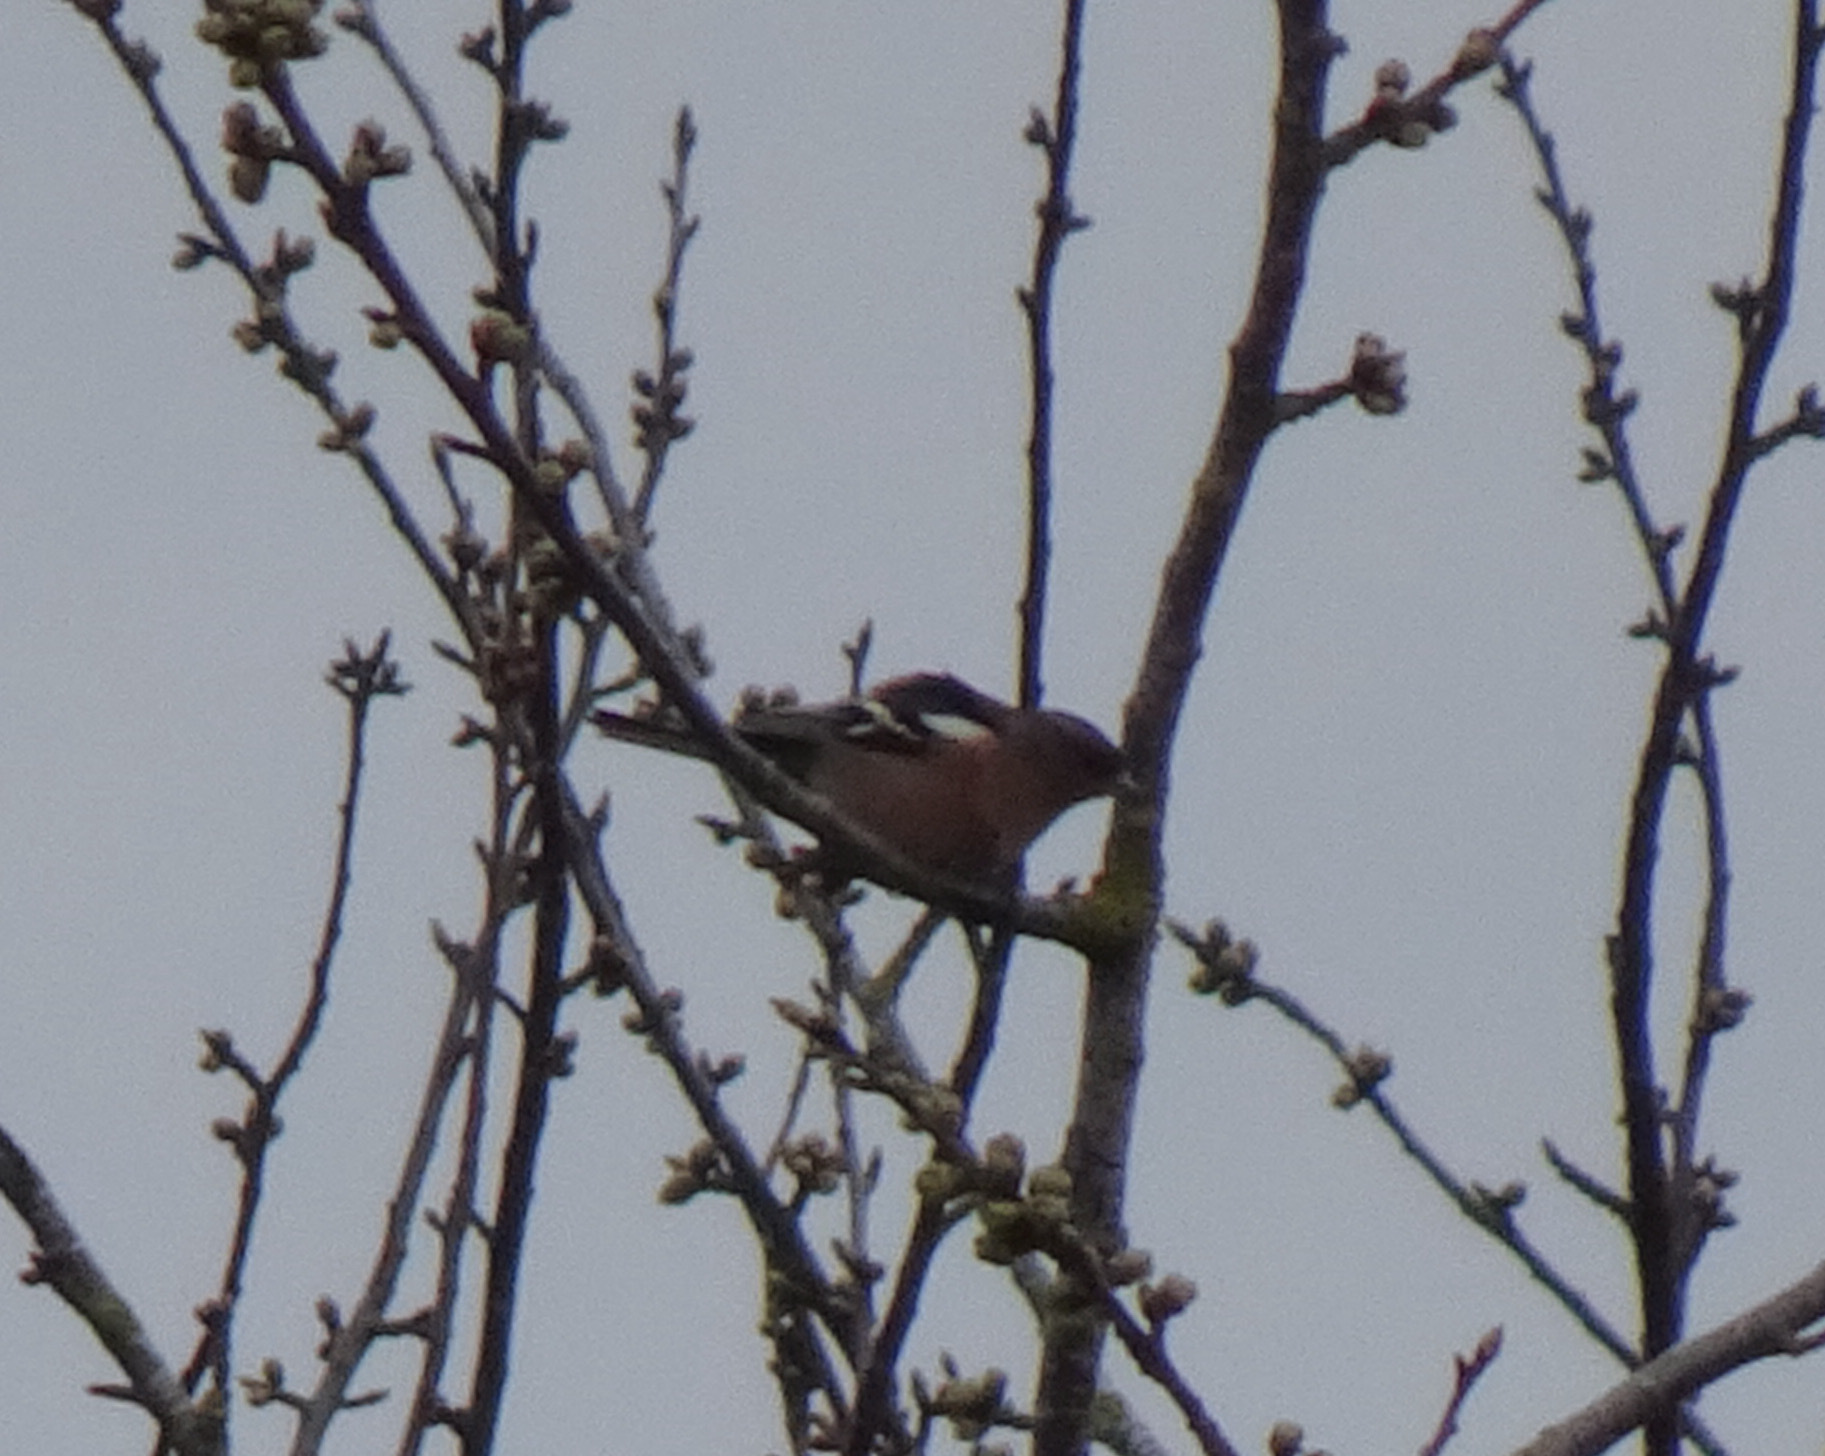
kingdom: Animalia
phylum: Chordata
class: Aves
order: Passeriformes
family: Fringillidae
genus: Fringilla
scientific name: Fringilla coelebs
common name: Common chaffinch
